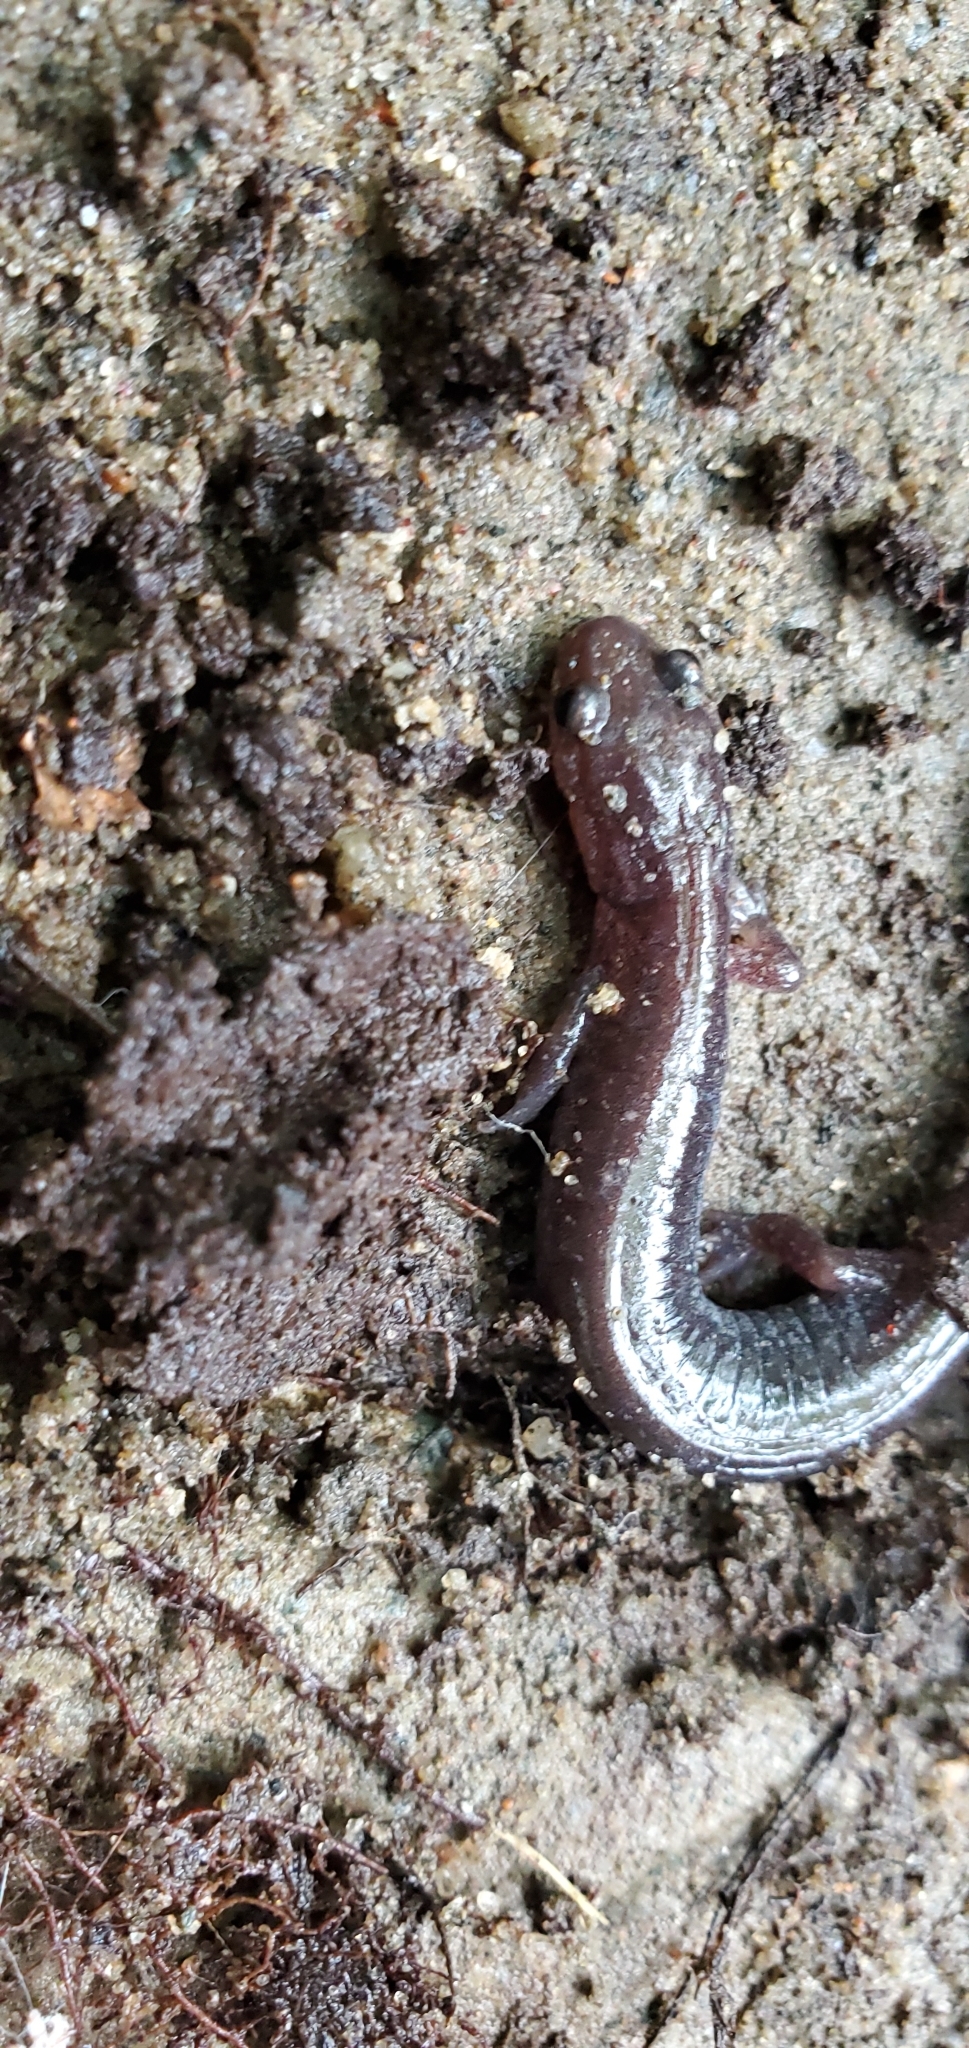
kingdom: Animalia
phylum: Chordata
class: Amphibia
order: Caudata
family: Plethodontidae
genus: Plethodon
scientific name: Plethodon cinereus
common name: Redback salamander
